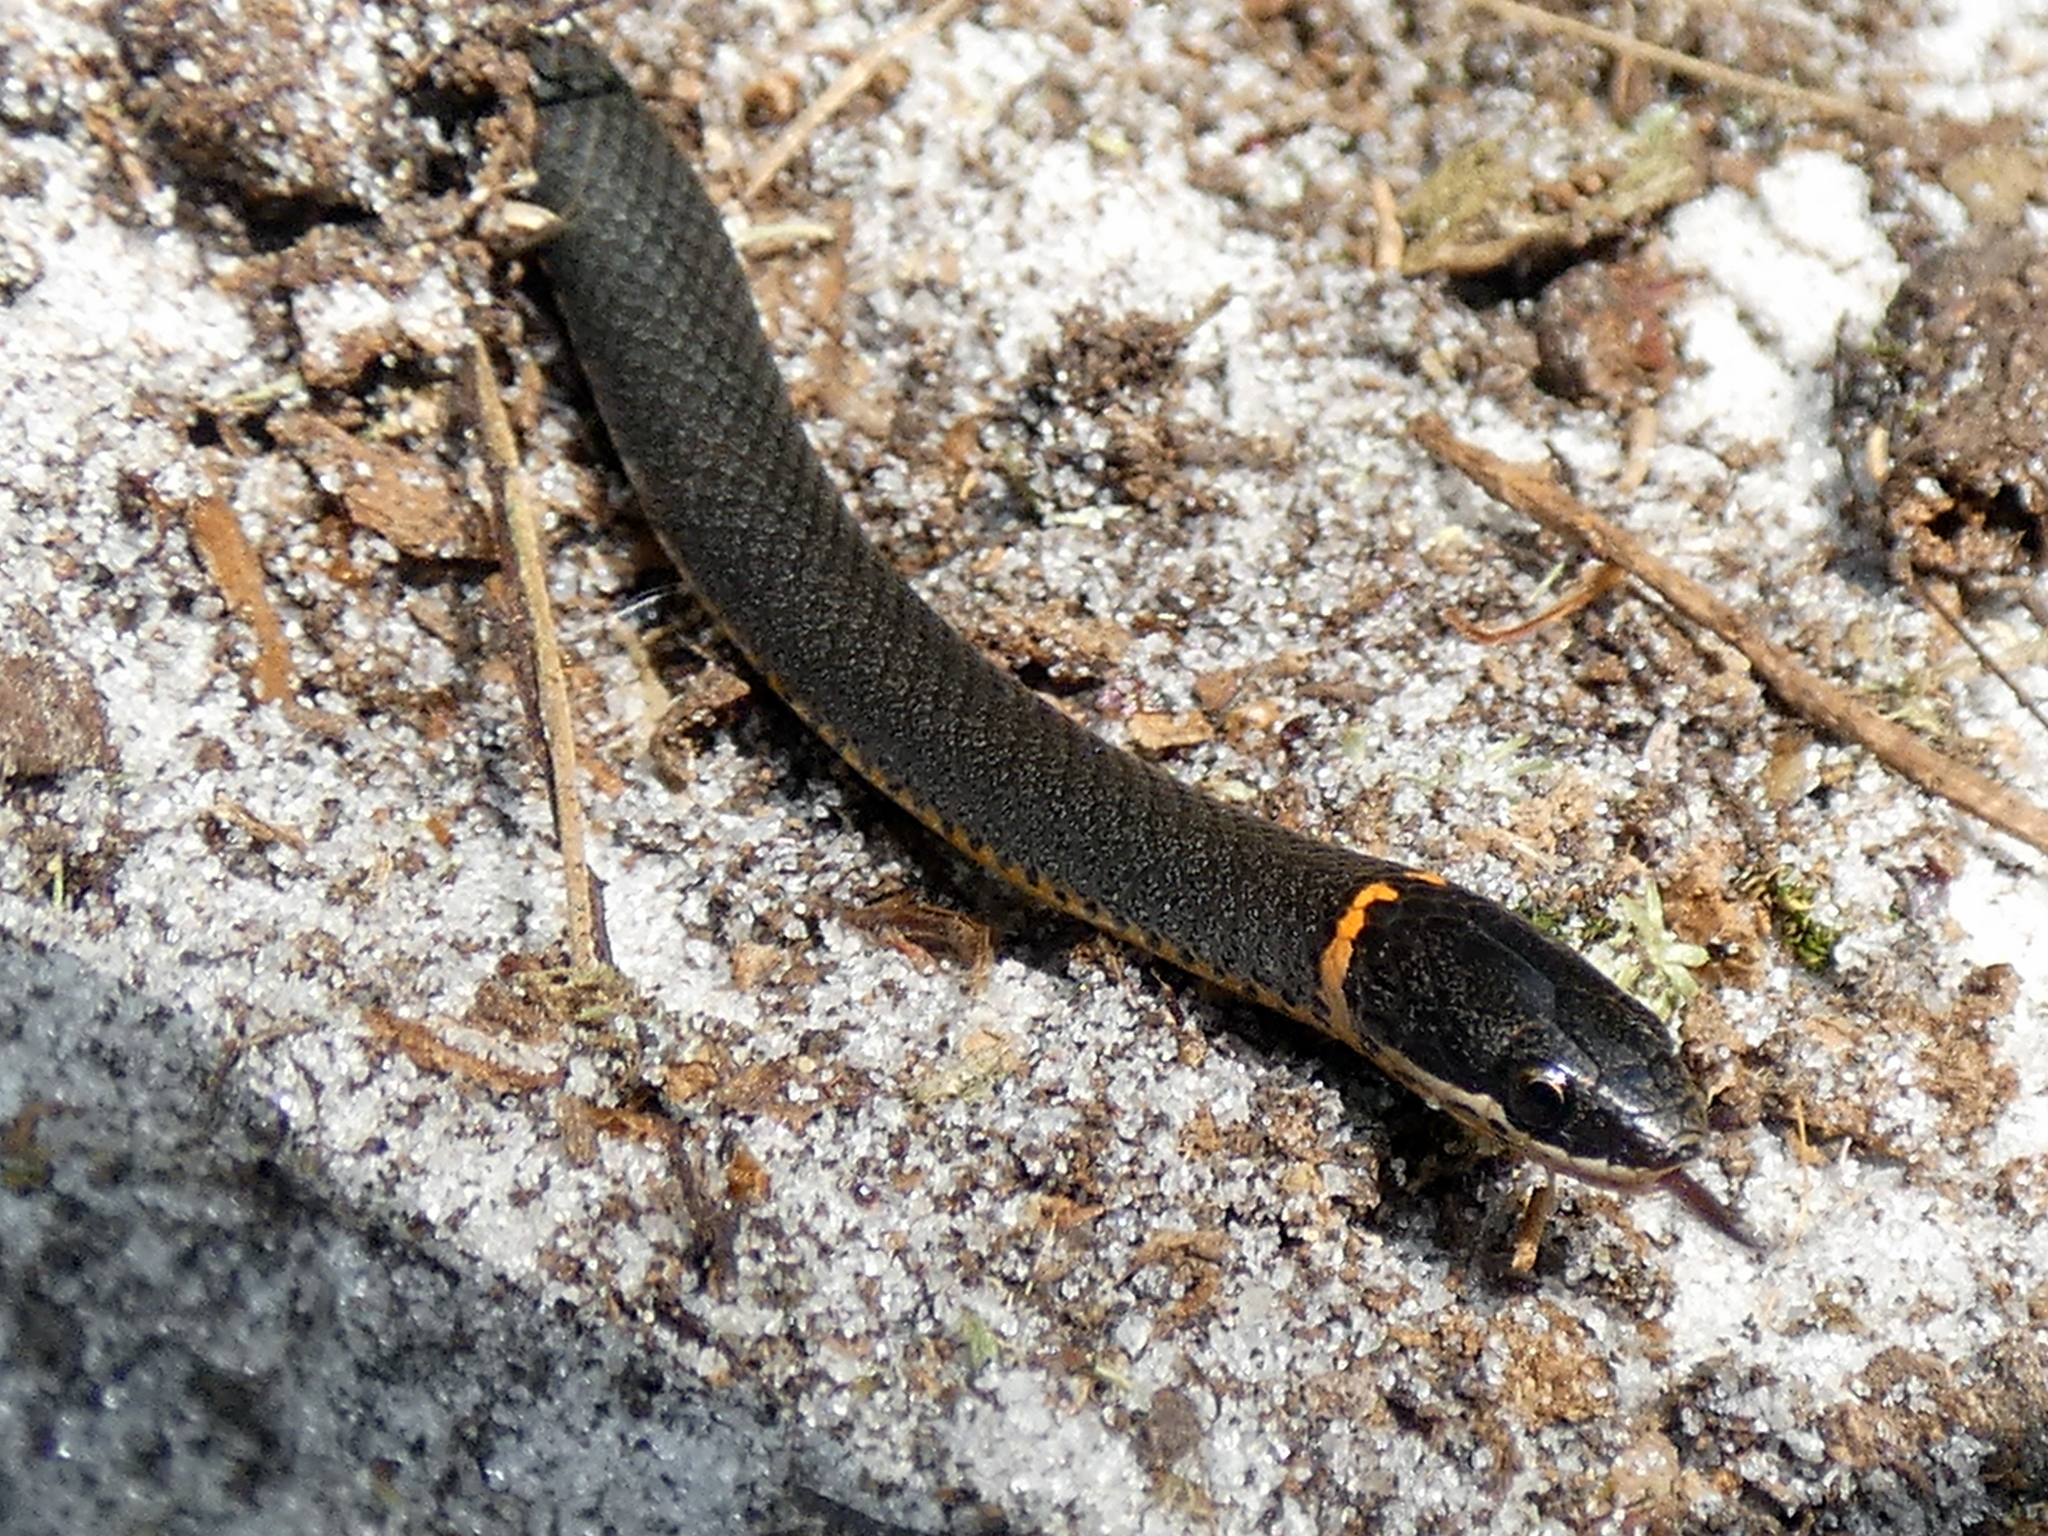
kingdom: Animalia
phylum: Chordata
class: Squamata
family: Colubridae
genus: Diadophis
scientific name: Diadophis punctatus
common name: Ringneck snake
